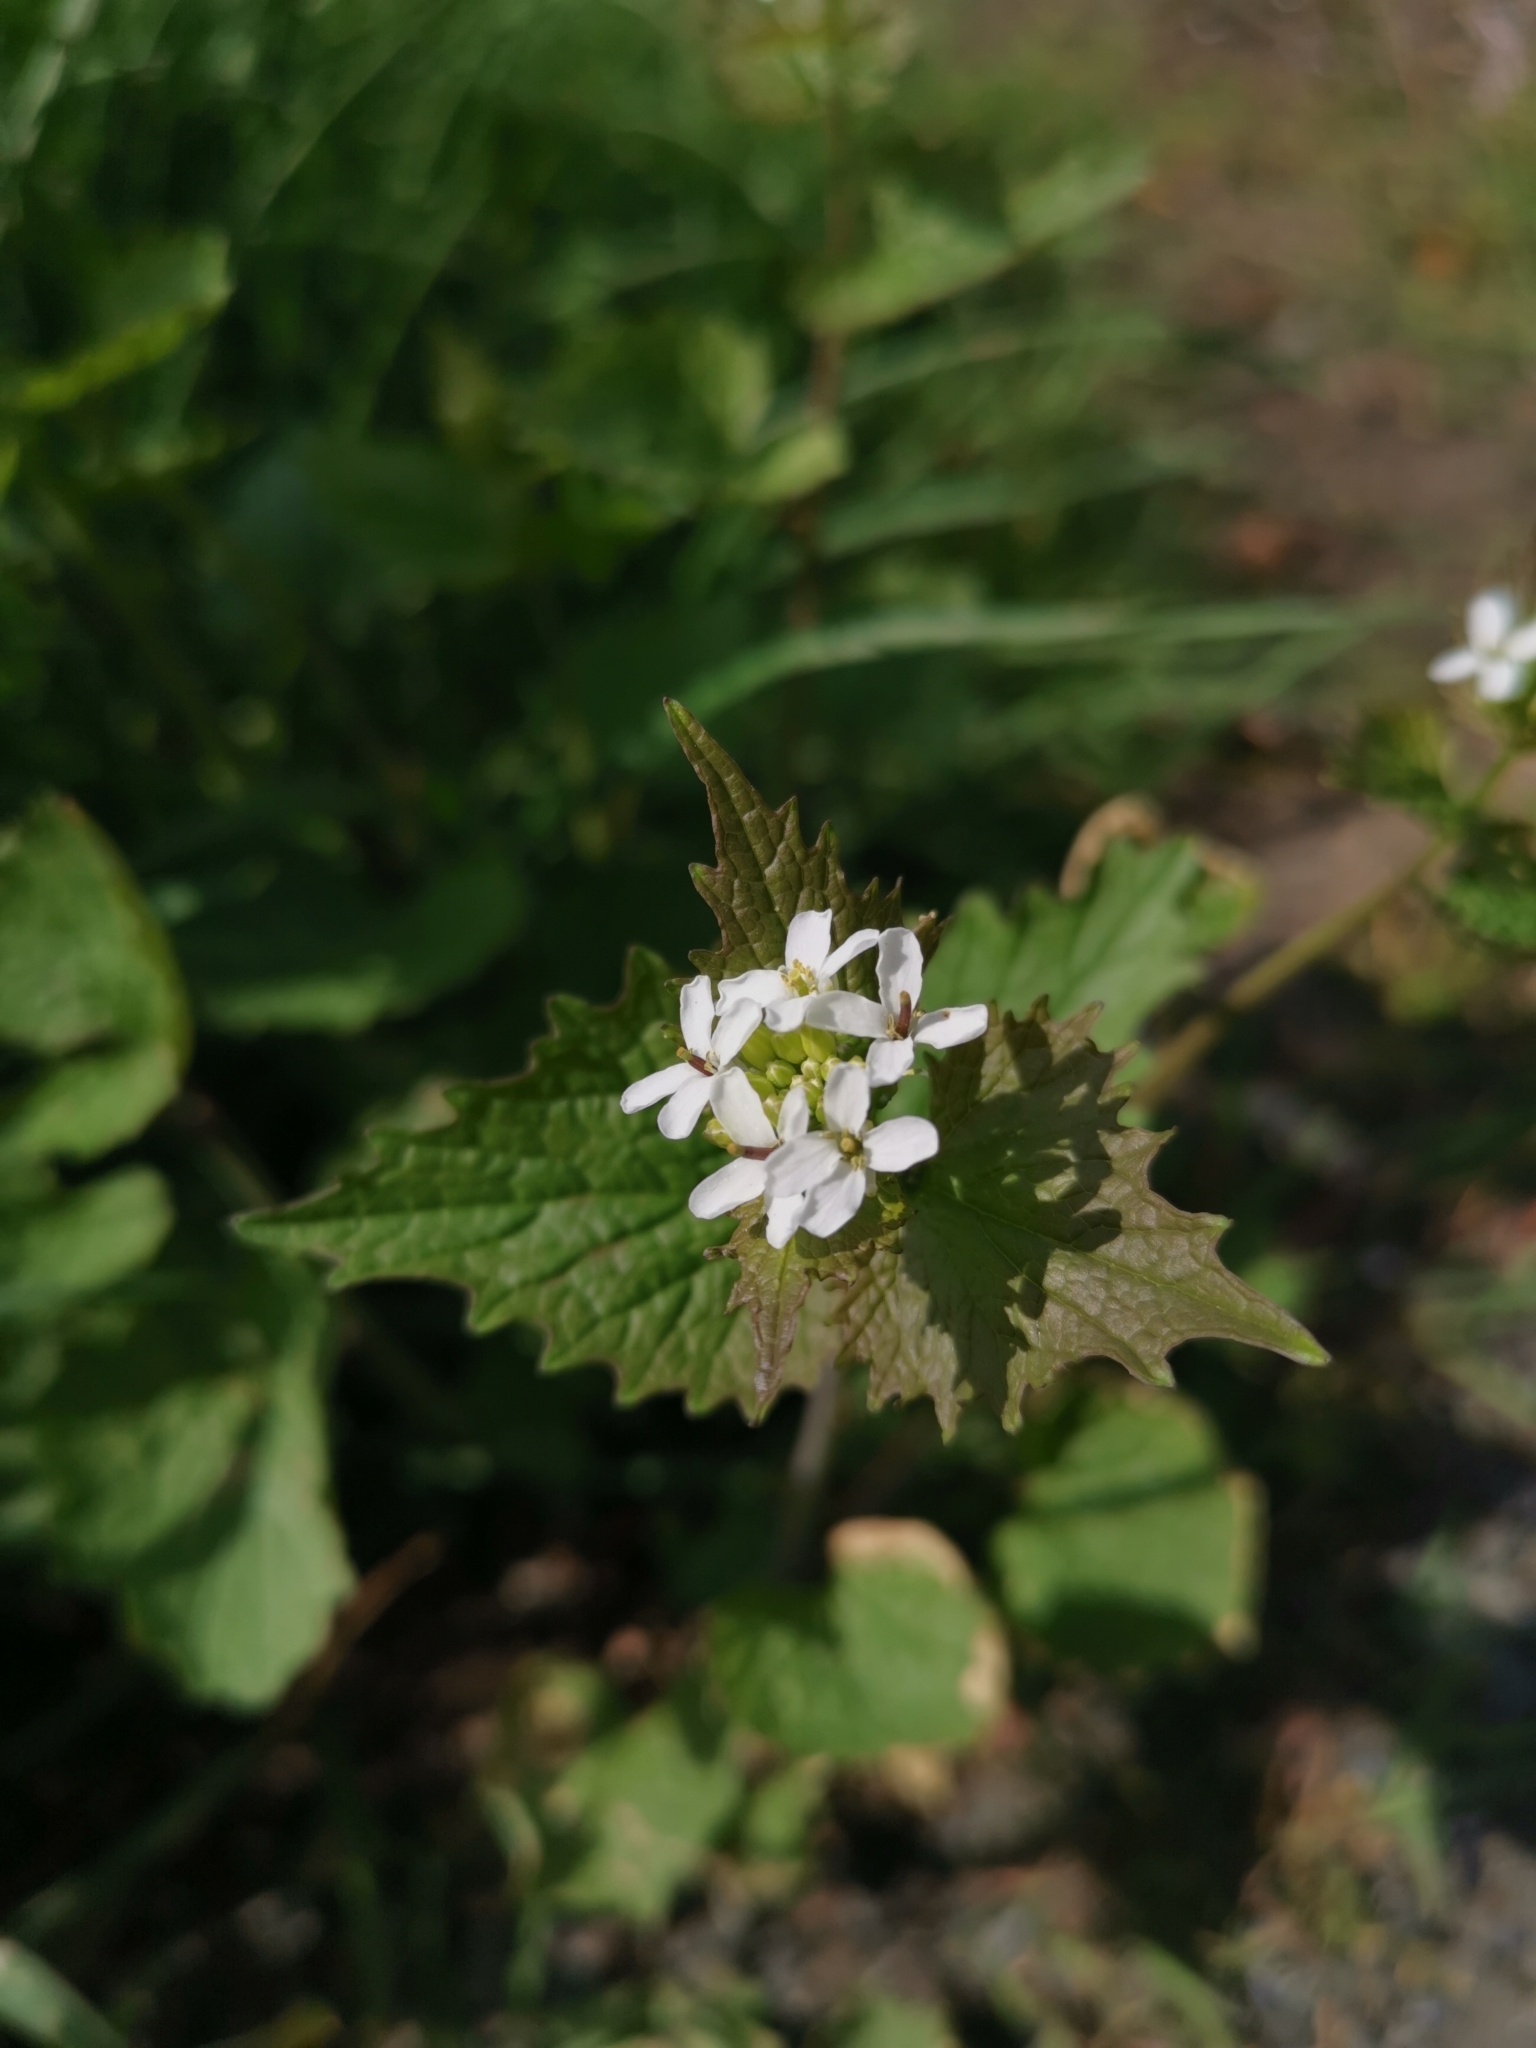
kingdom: Plantae
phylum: Tracheophyta
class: Magnoliopsida
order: Brassicales
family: Brassicaceae
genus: Alliaria
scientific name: Alliaria petiolata
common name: Garlic mustard
